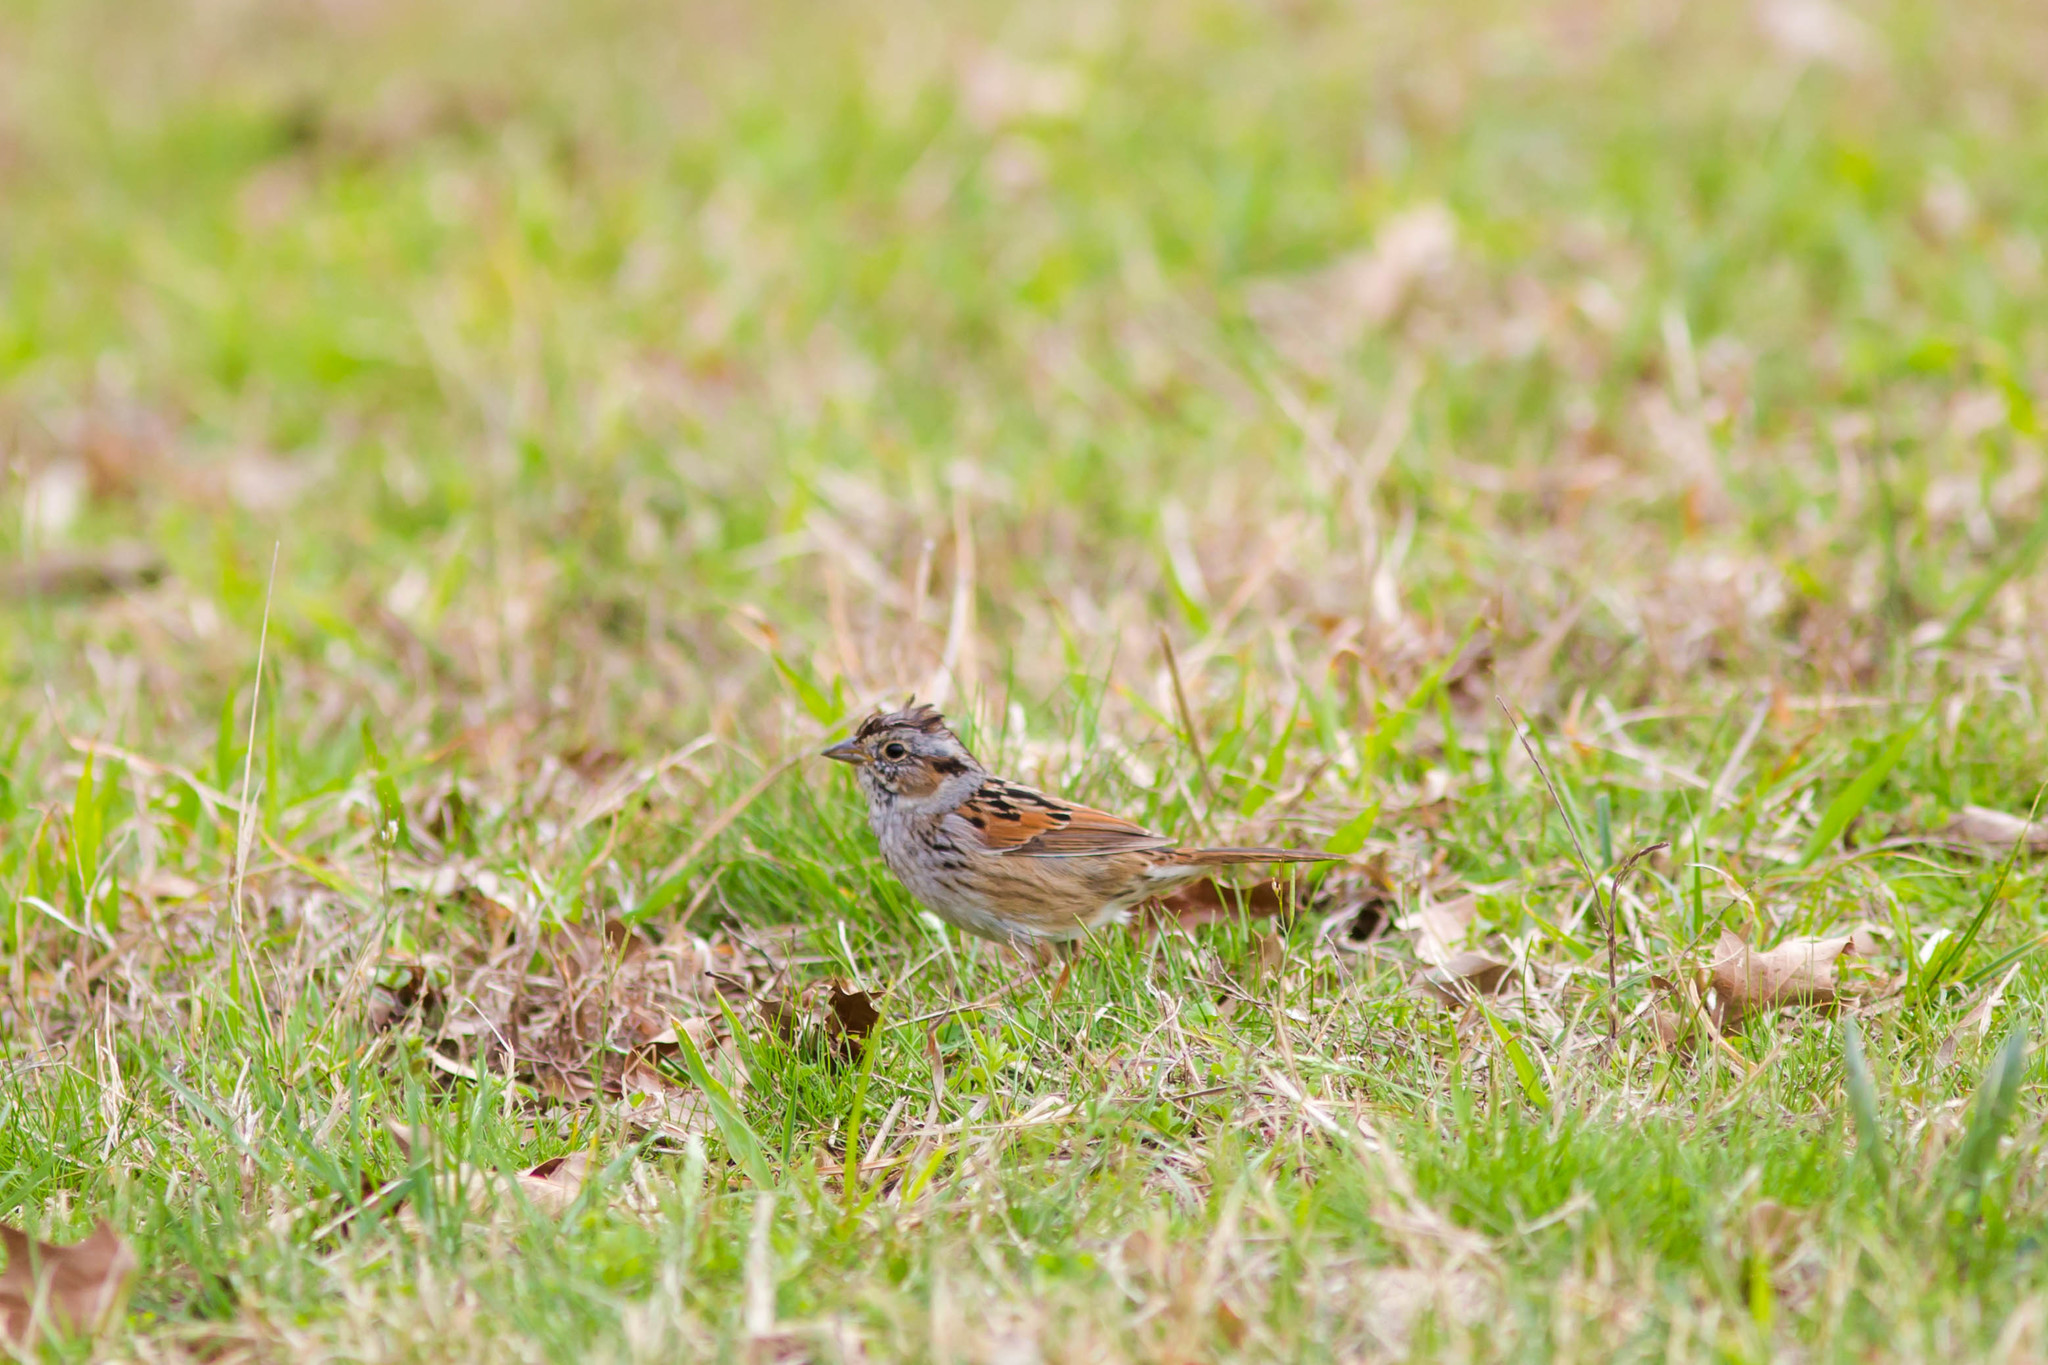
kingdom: Animalia
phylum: Chordata
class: Aves
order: Passeriformes
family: Passerellidae
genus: Melospiza
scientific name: Melospiza georgiana
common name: Swamp sparrow
